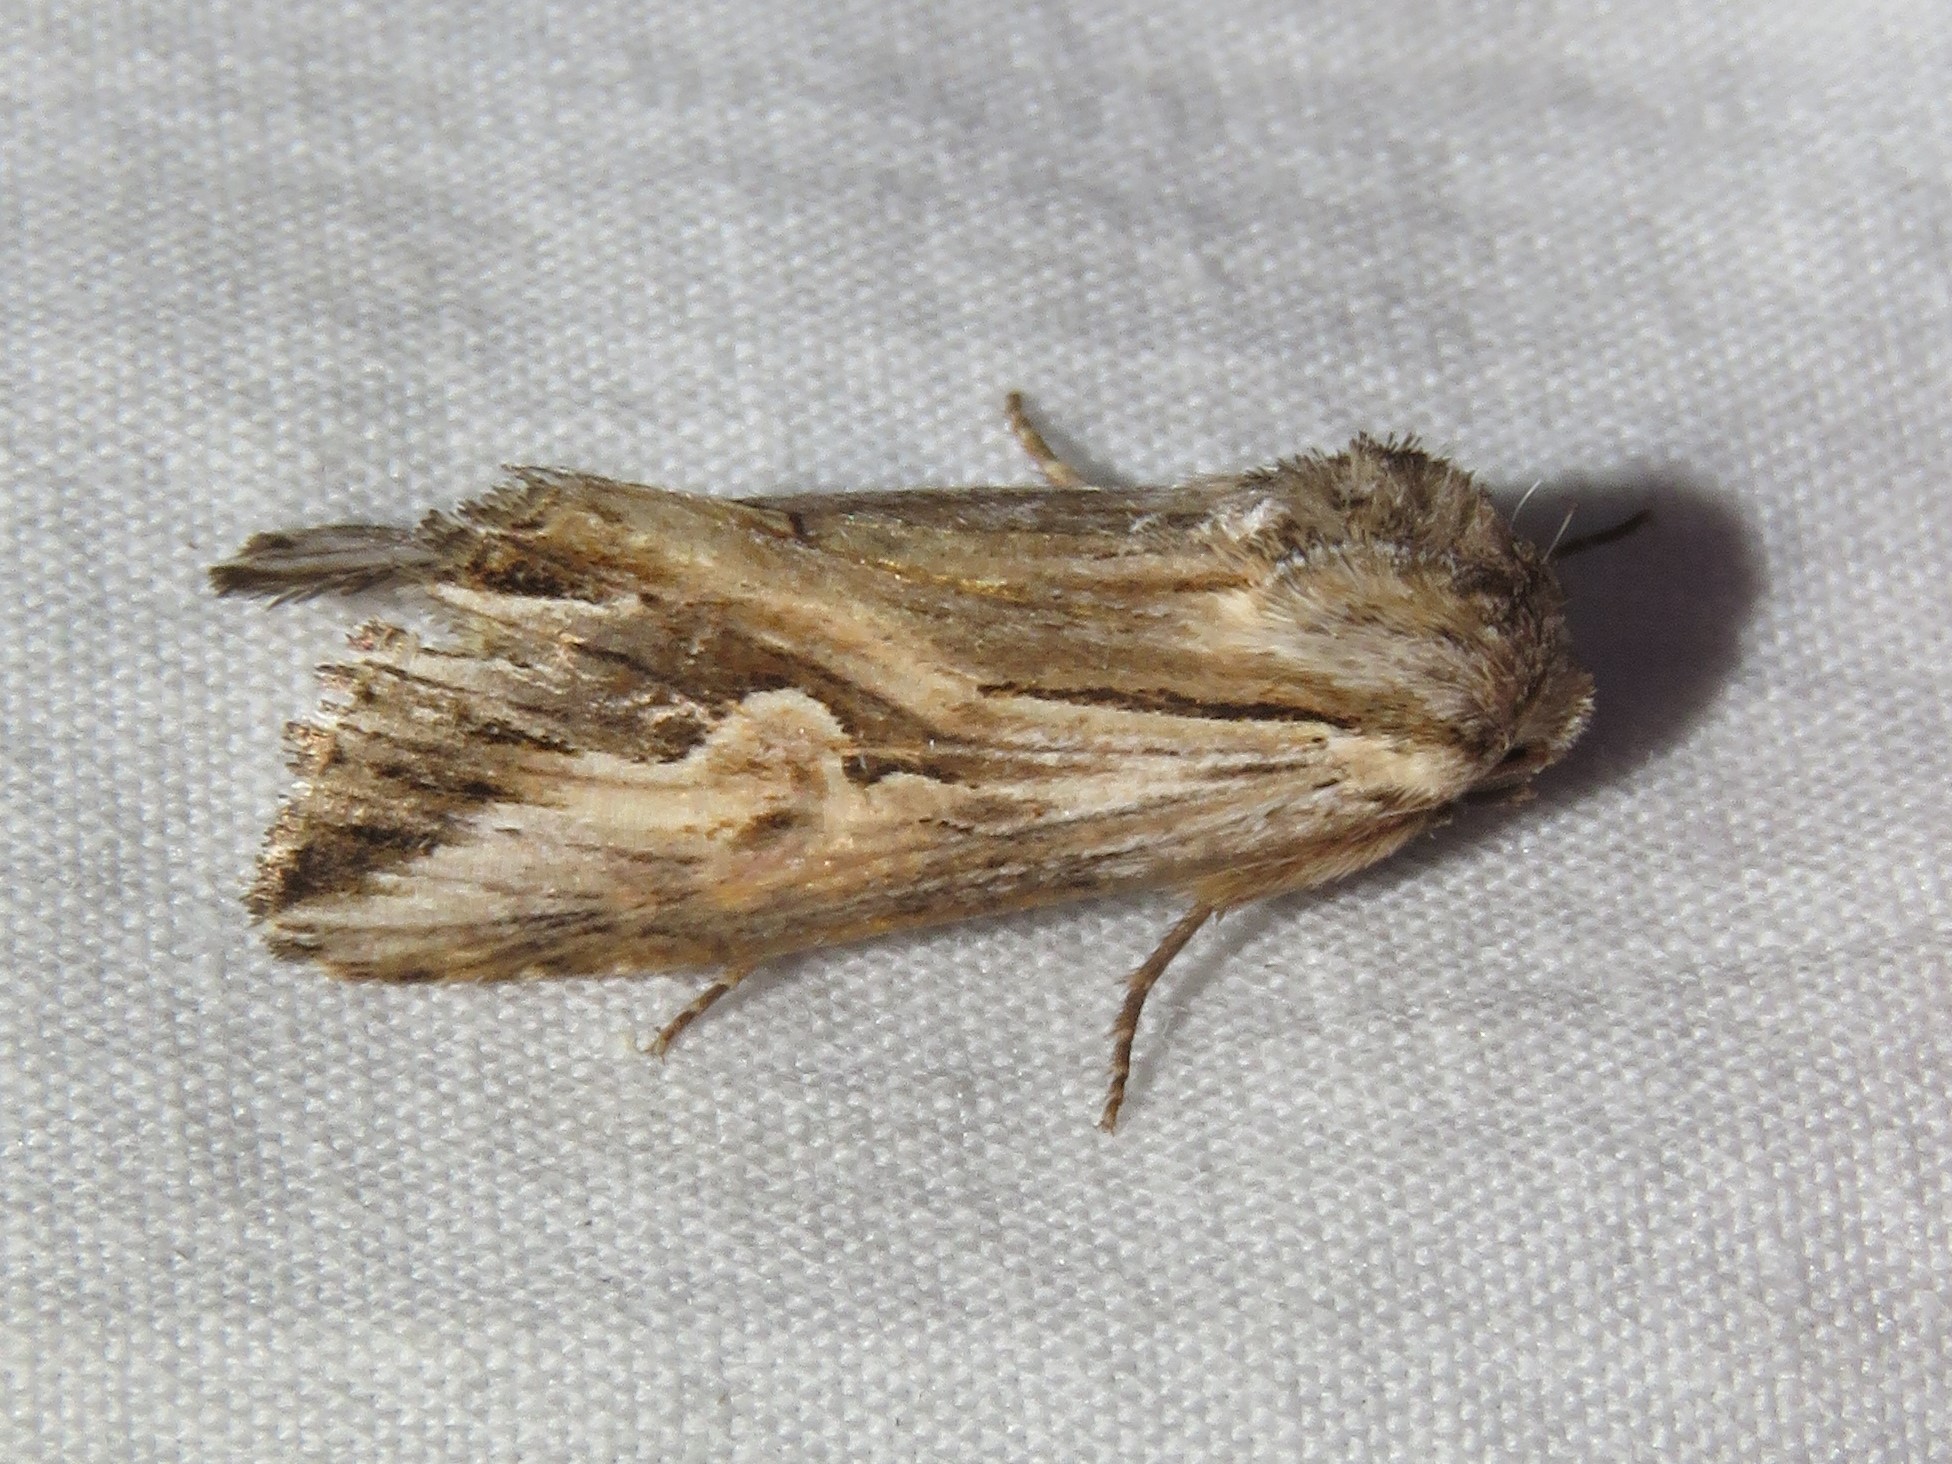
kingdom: Animalia
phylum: Arthropoda
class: Insecta
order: Lepidoptera
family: Noctuidae
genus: Nedra
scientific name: Nedra ramosula
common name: Gray half-spot
